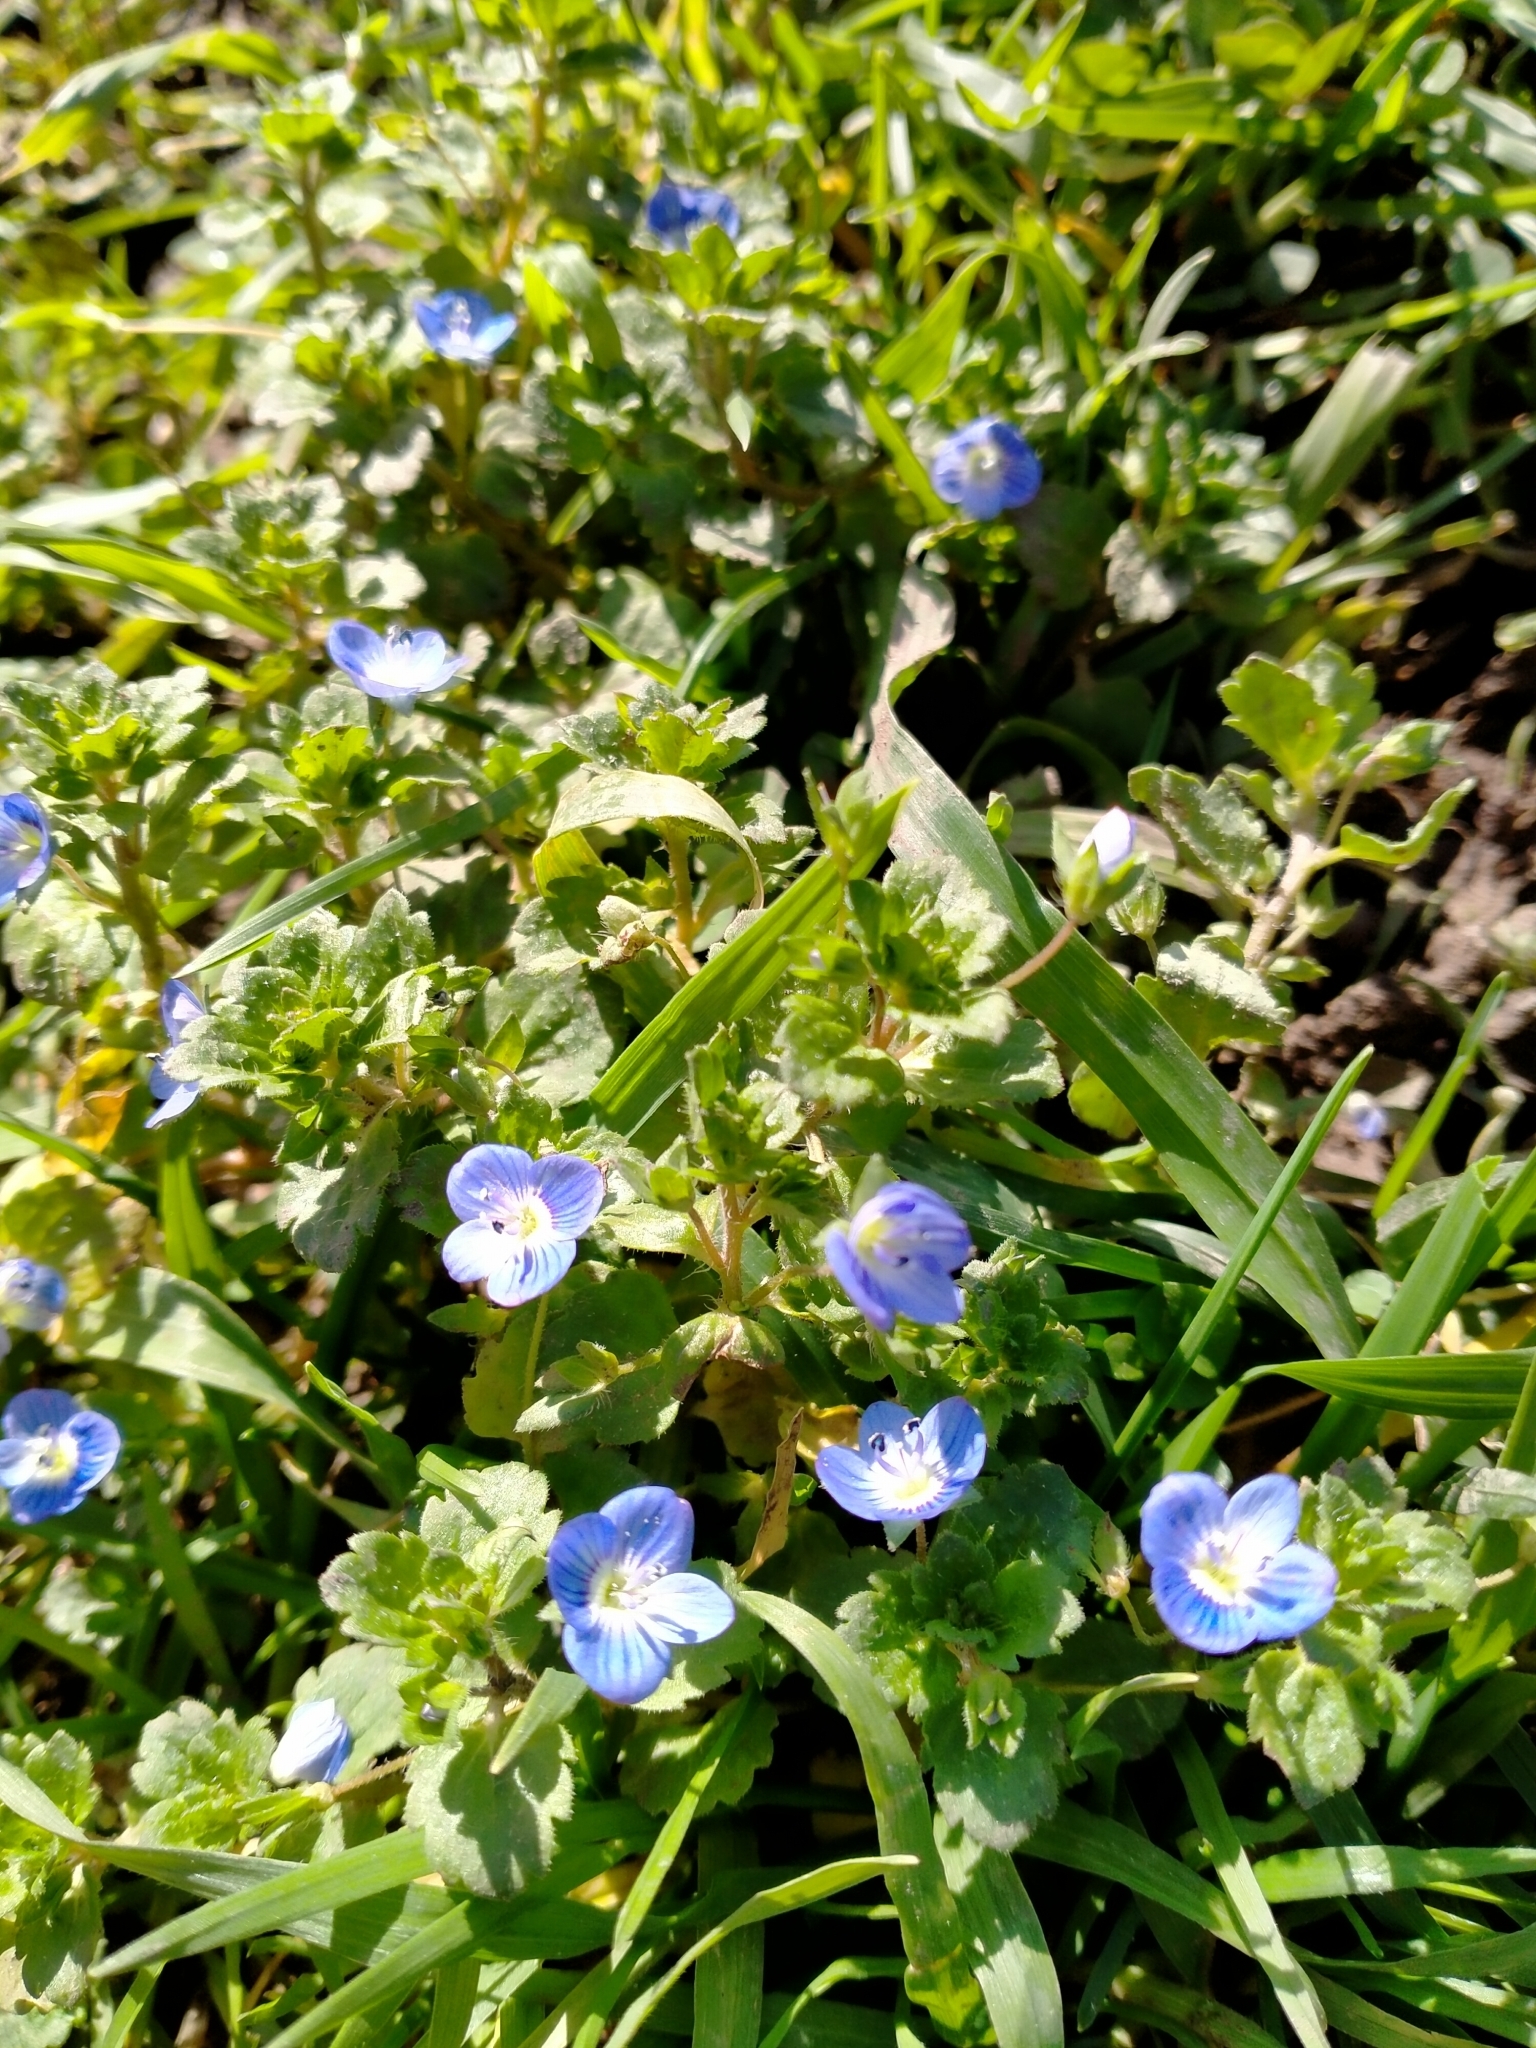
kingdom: Plantae
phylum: Tracheophyta
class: Magnoliopsida
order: Lamiales
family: Plantaginaceae
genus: Veronica
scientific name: Veronica persica
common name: Common field-speedwell
